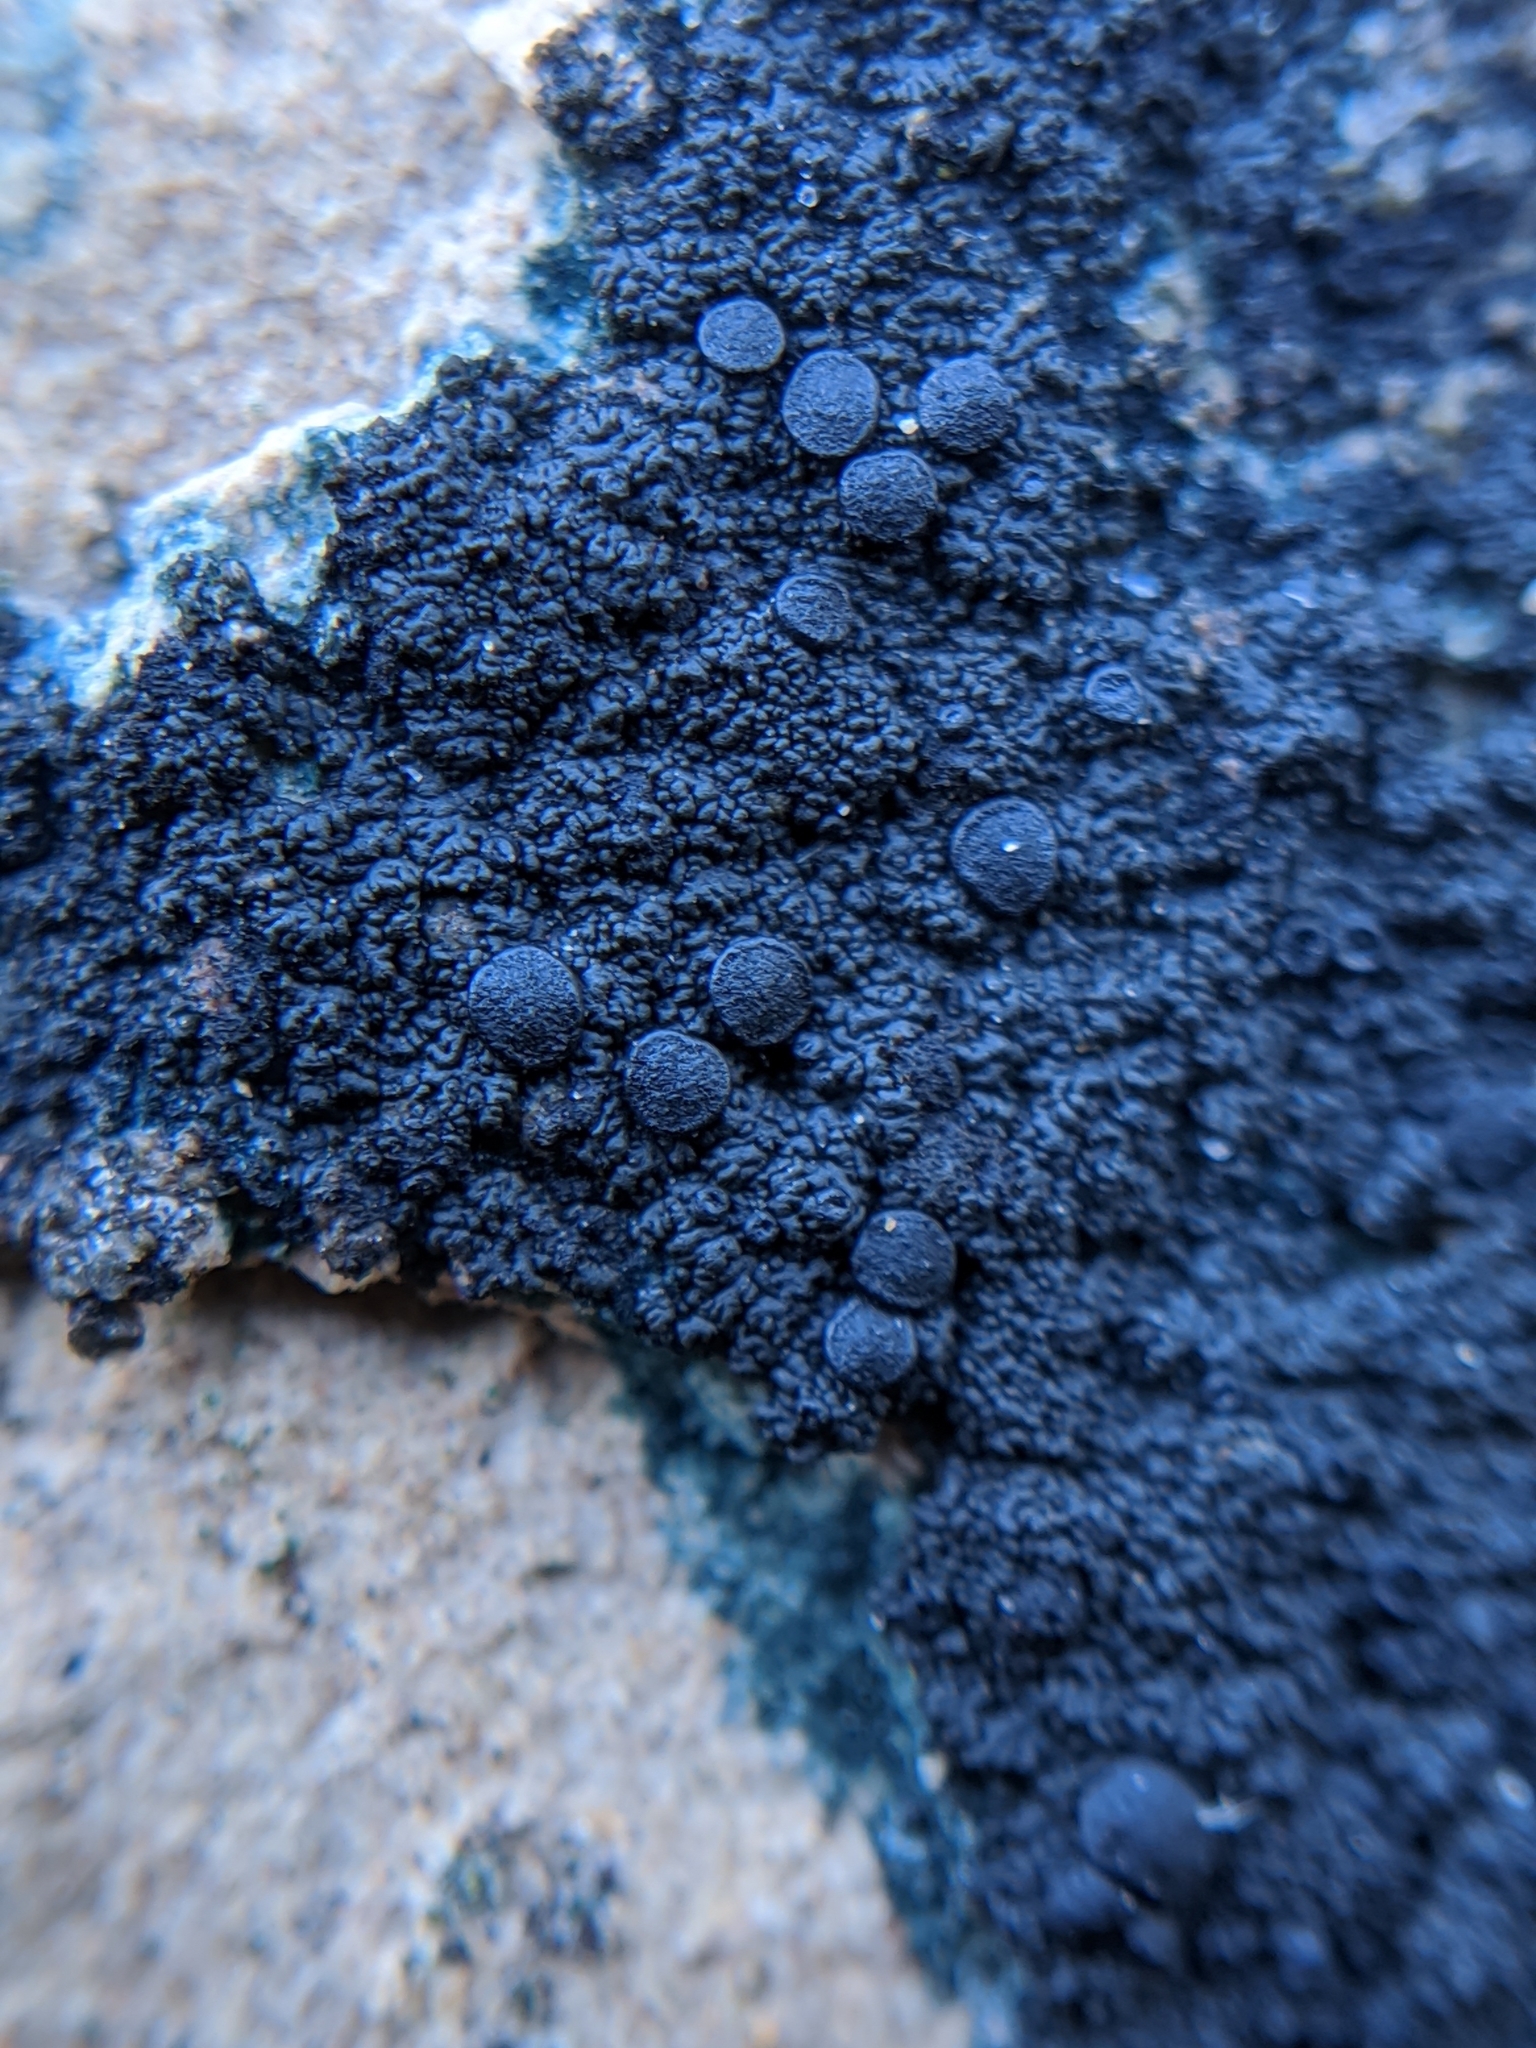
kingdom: Fungi
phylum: Ascomycota
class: Lecanoromycetes
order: Peltigerales
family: Placynthiaceae
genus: Placynthium
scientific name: Placynthium nigrum
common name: Blackthread lichen
